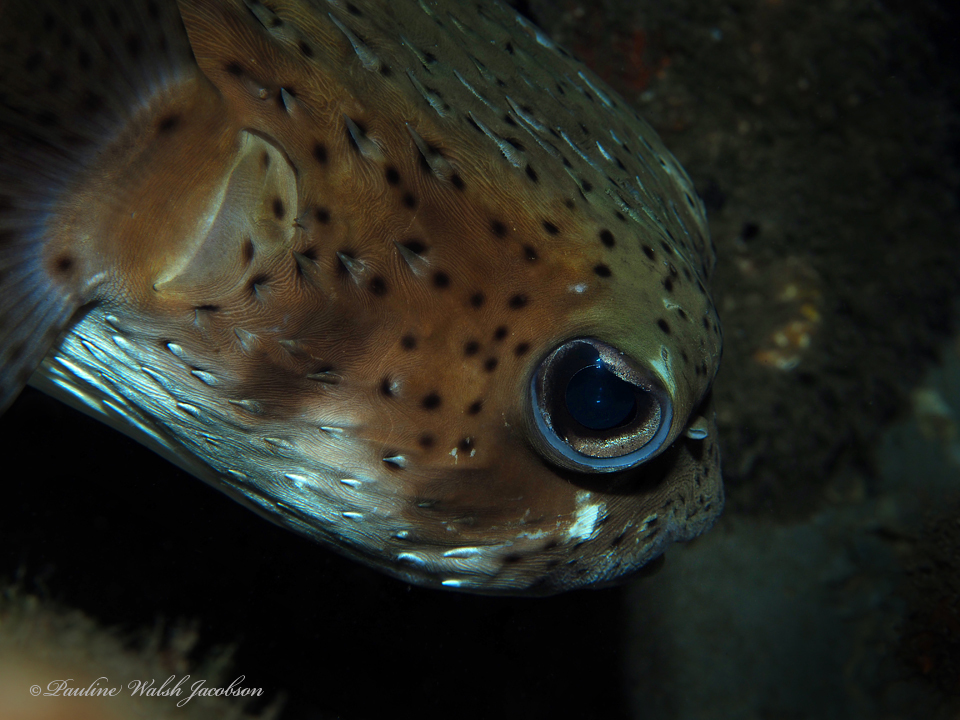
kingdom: Animalia
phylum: Chordata
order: Tetraodontiformes
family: Diodontidae
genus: Diodon
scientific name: Diodon hystrix
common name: Giant porcupinefish
